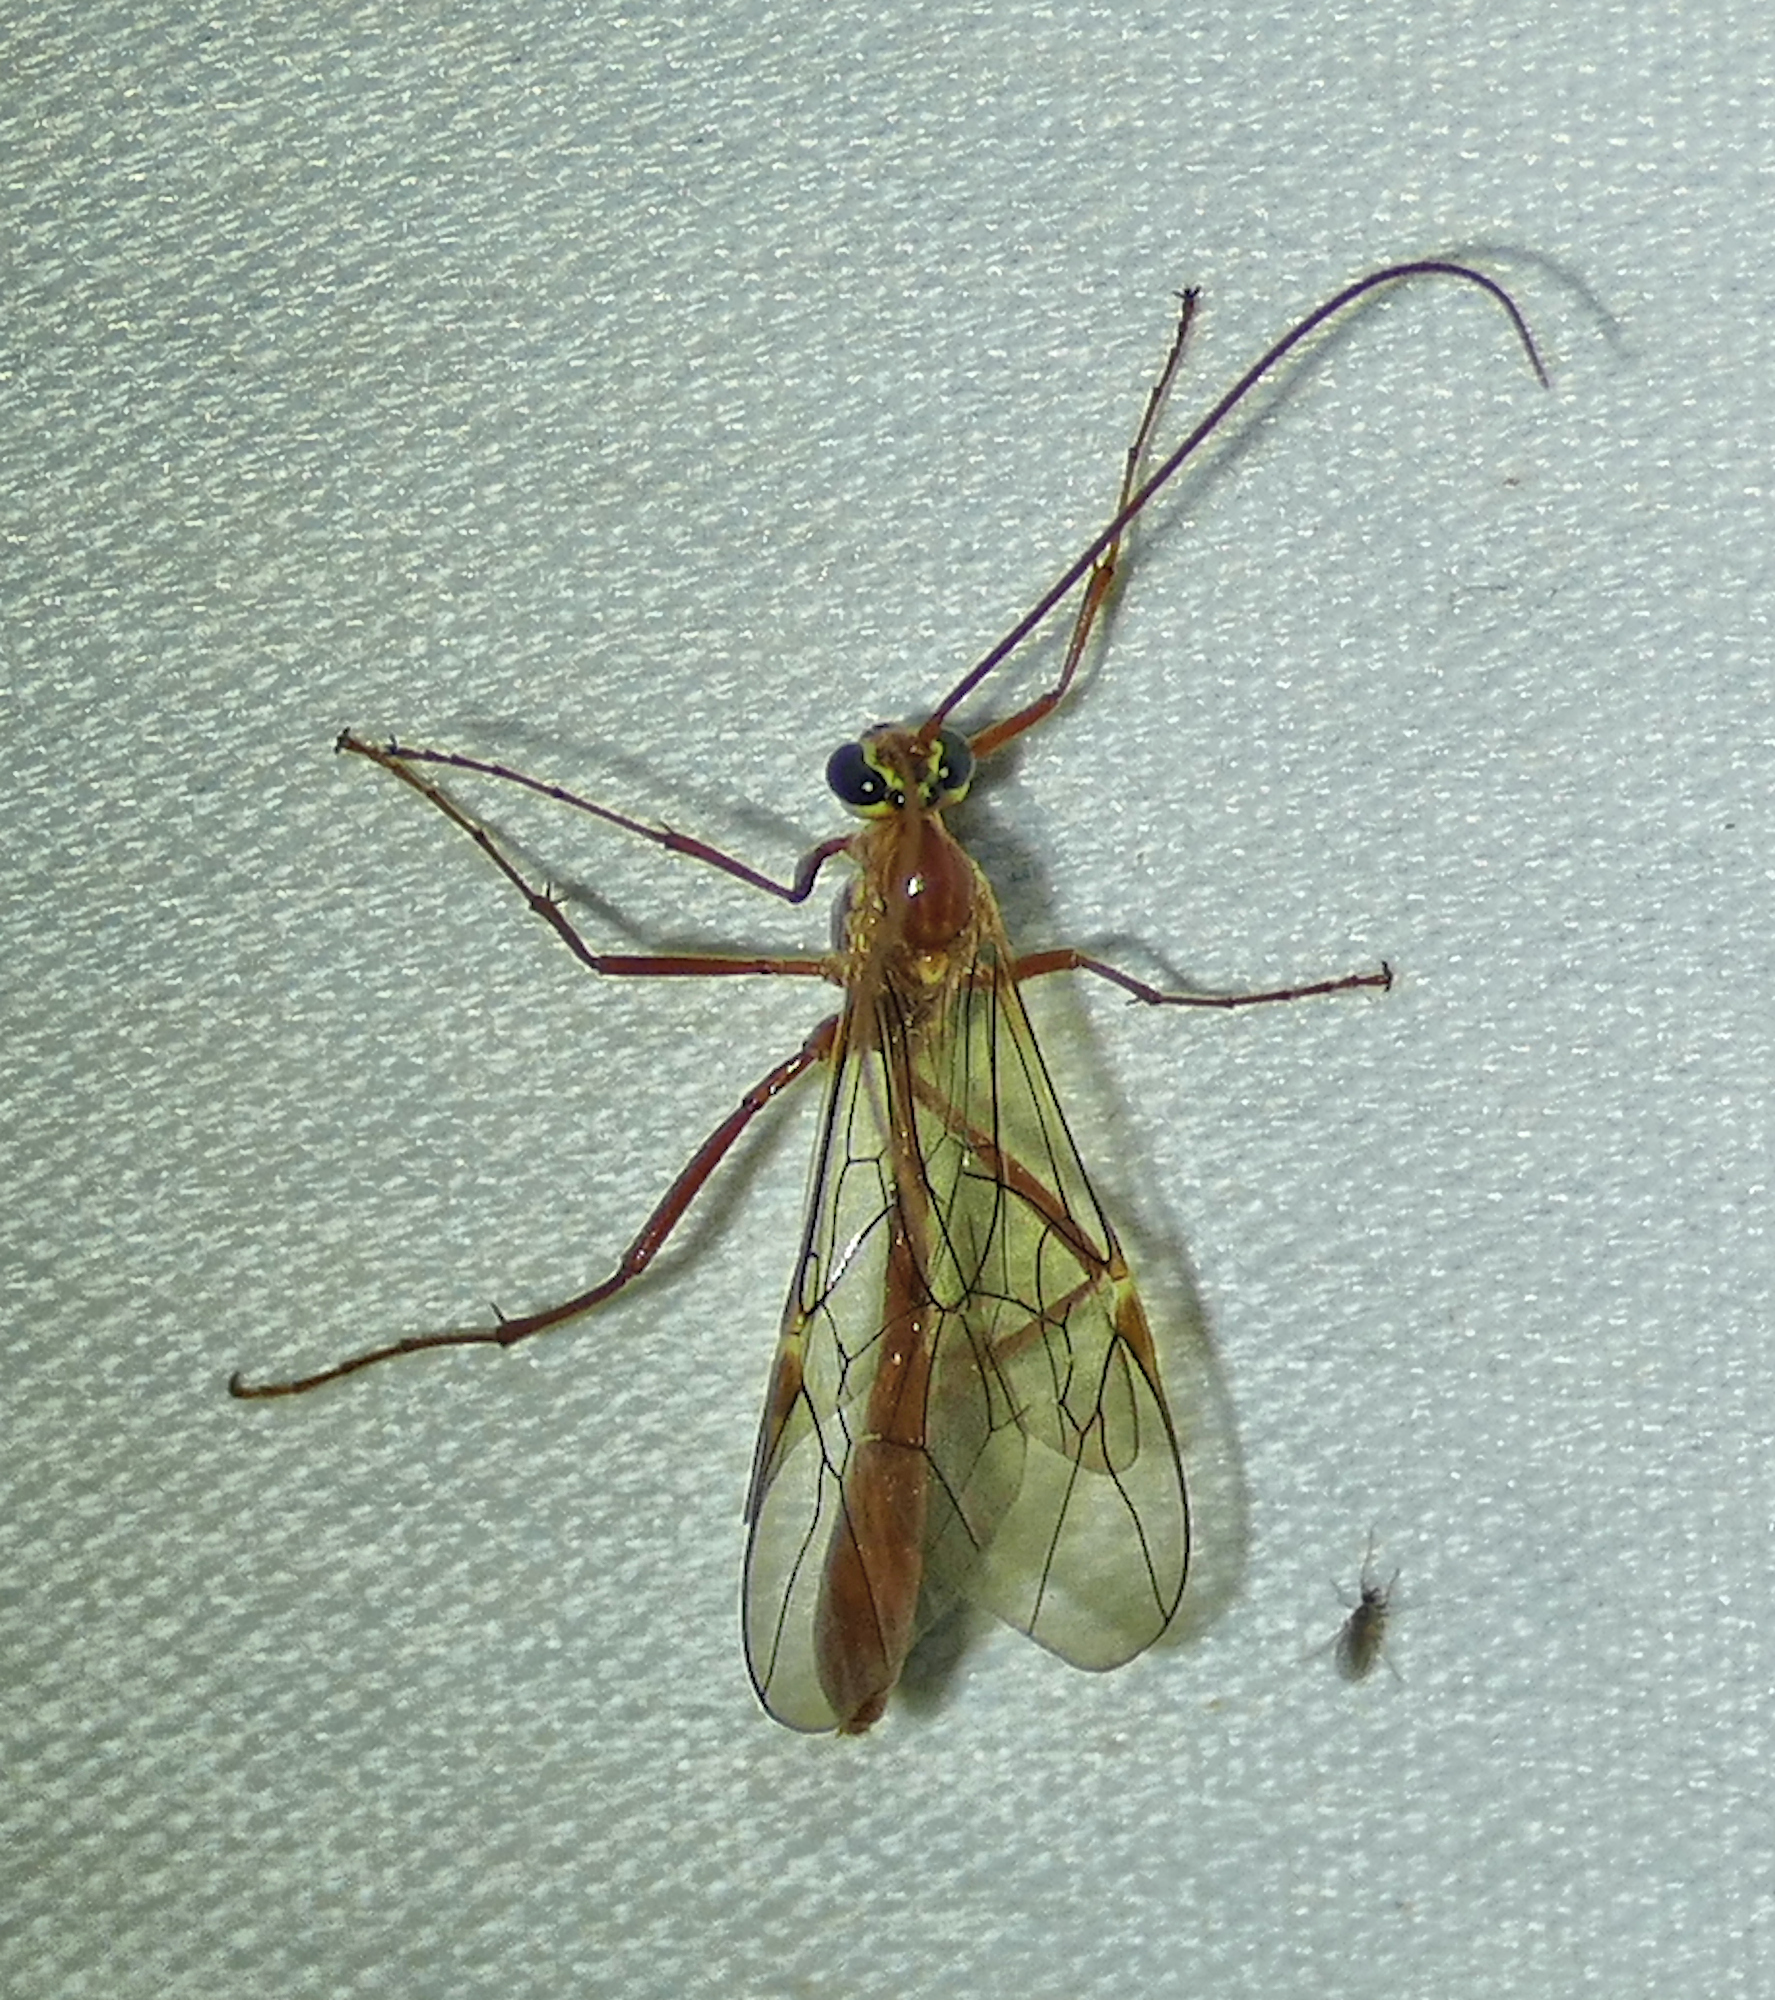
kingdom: Animalia
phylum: Arthropoda
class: Insecta
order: Hymenoptera
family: Ichneumonidae
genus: Ophion
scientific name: Ophion
